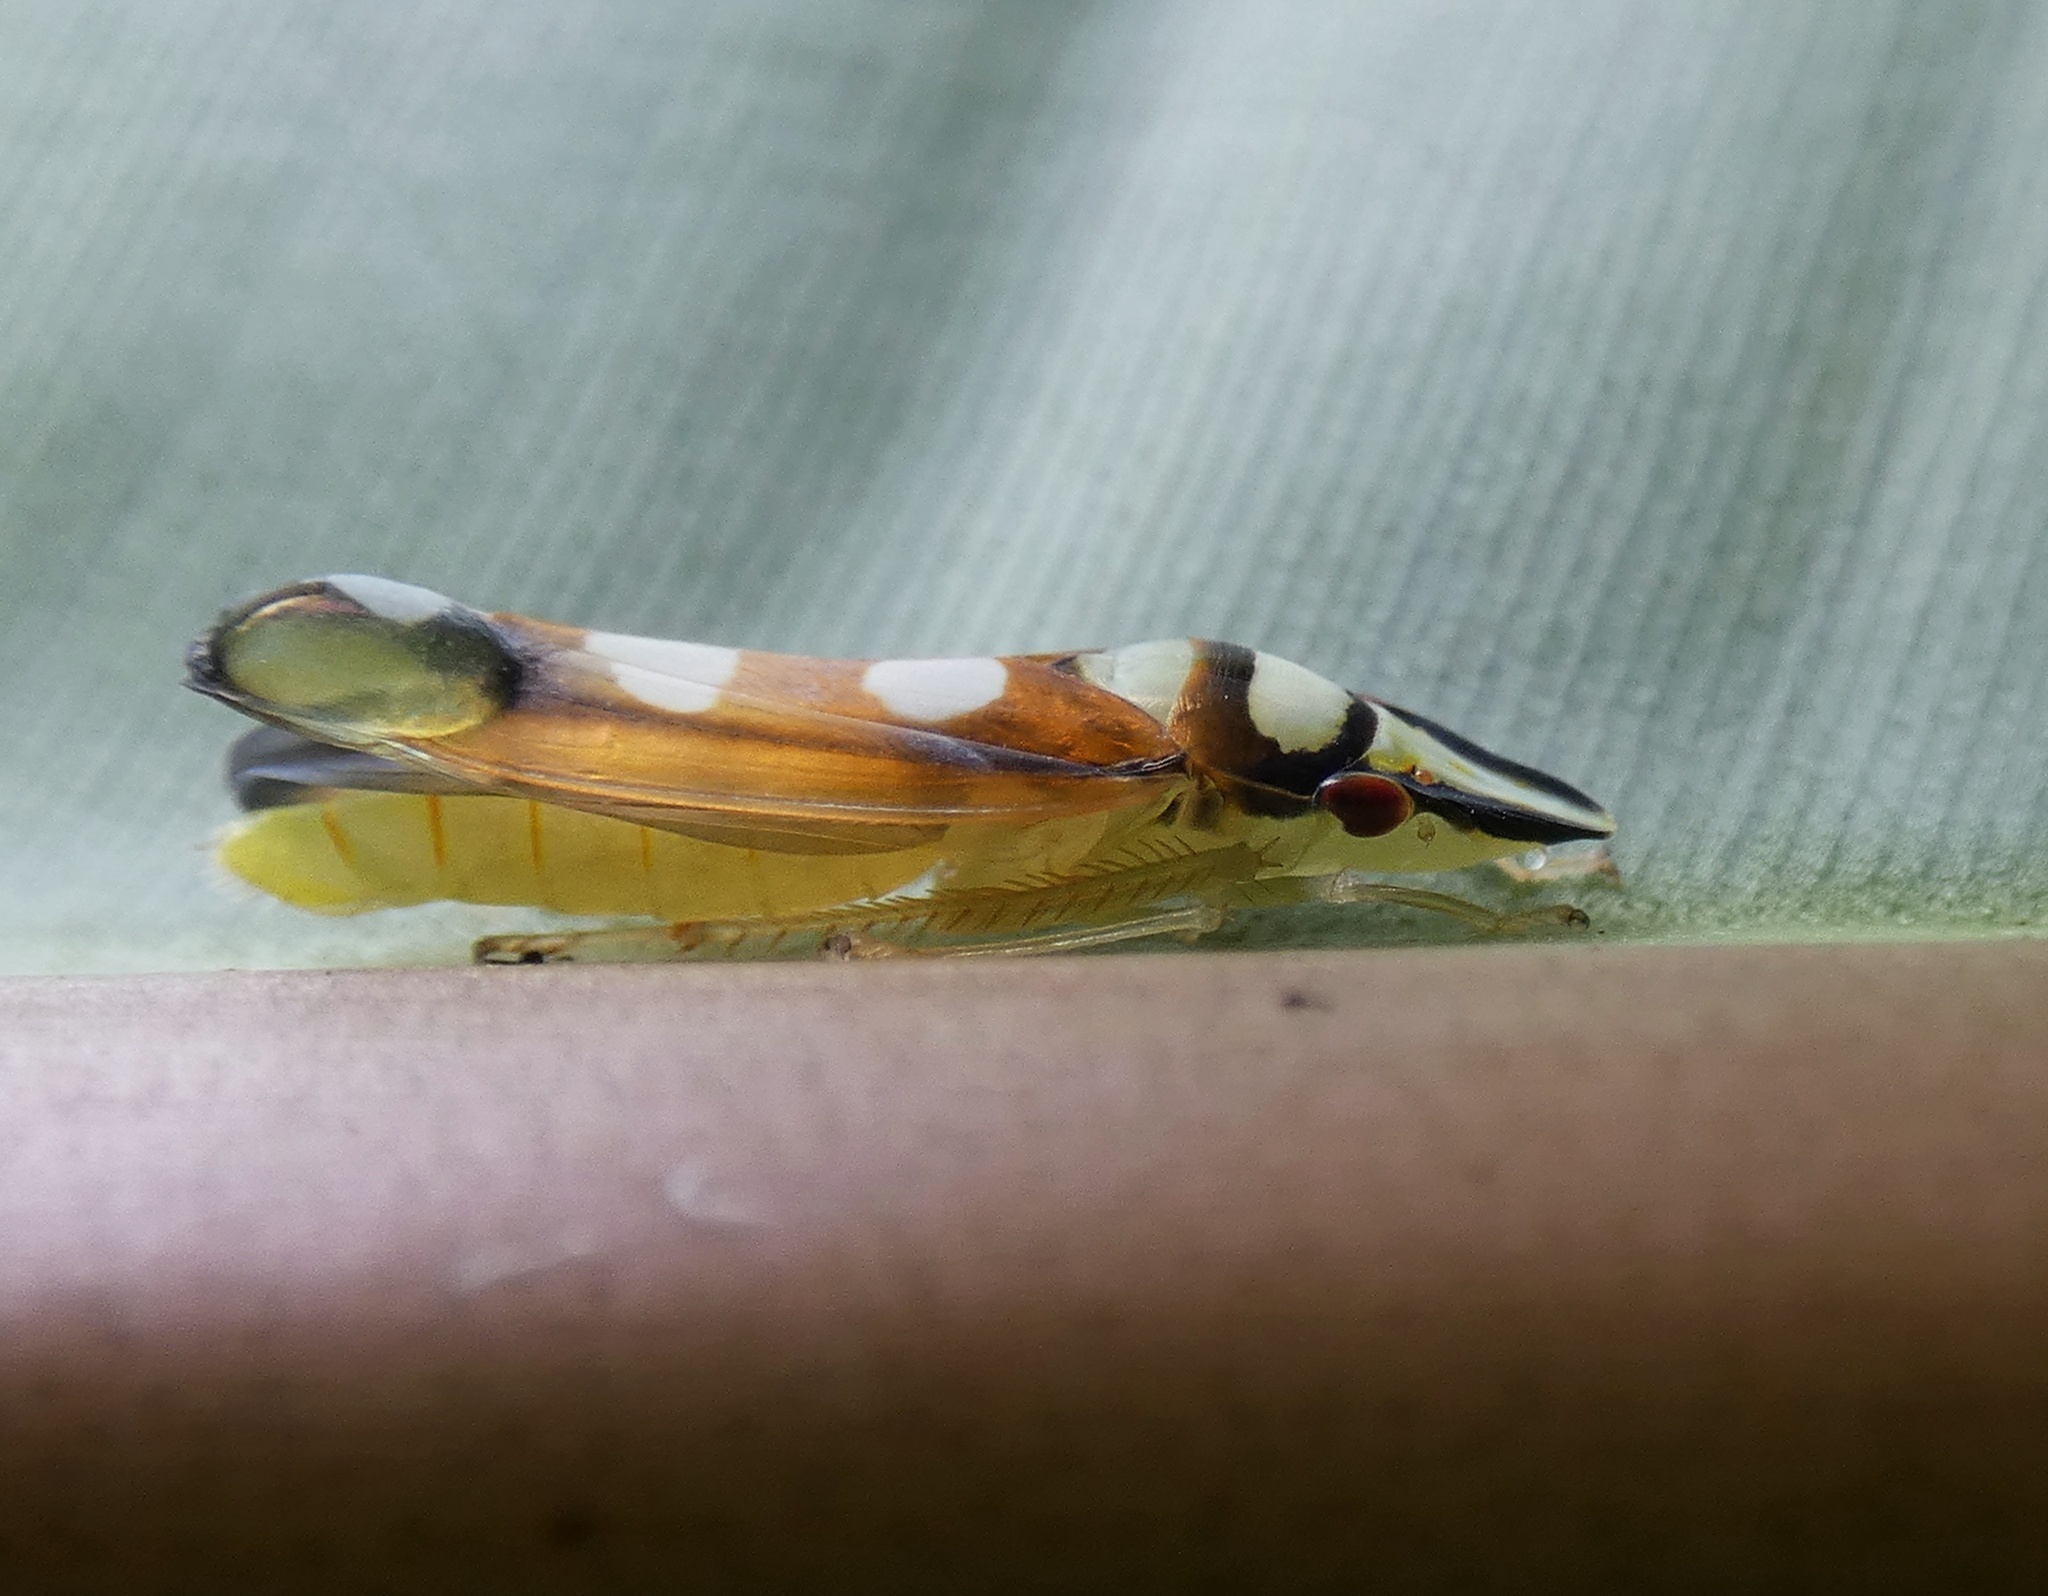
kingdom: Animalia
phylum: Arthropoda
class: Insecta
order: Hemiptera
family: Cicadellidae
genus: Platygonia
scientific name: Platygonia spatulata
